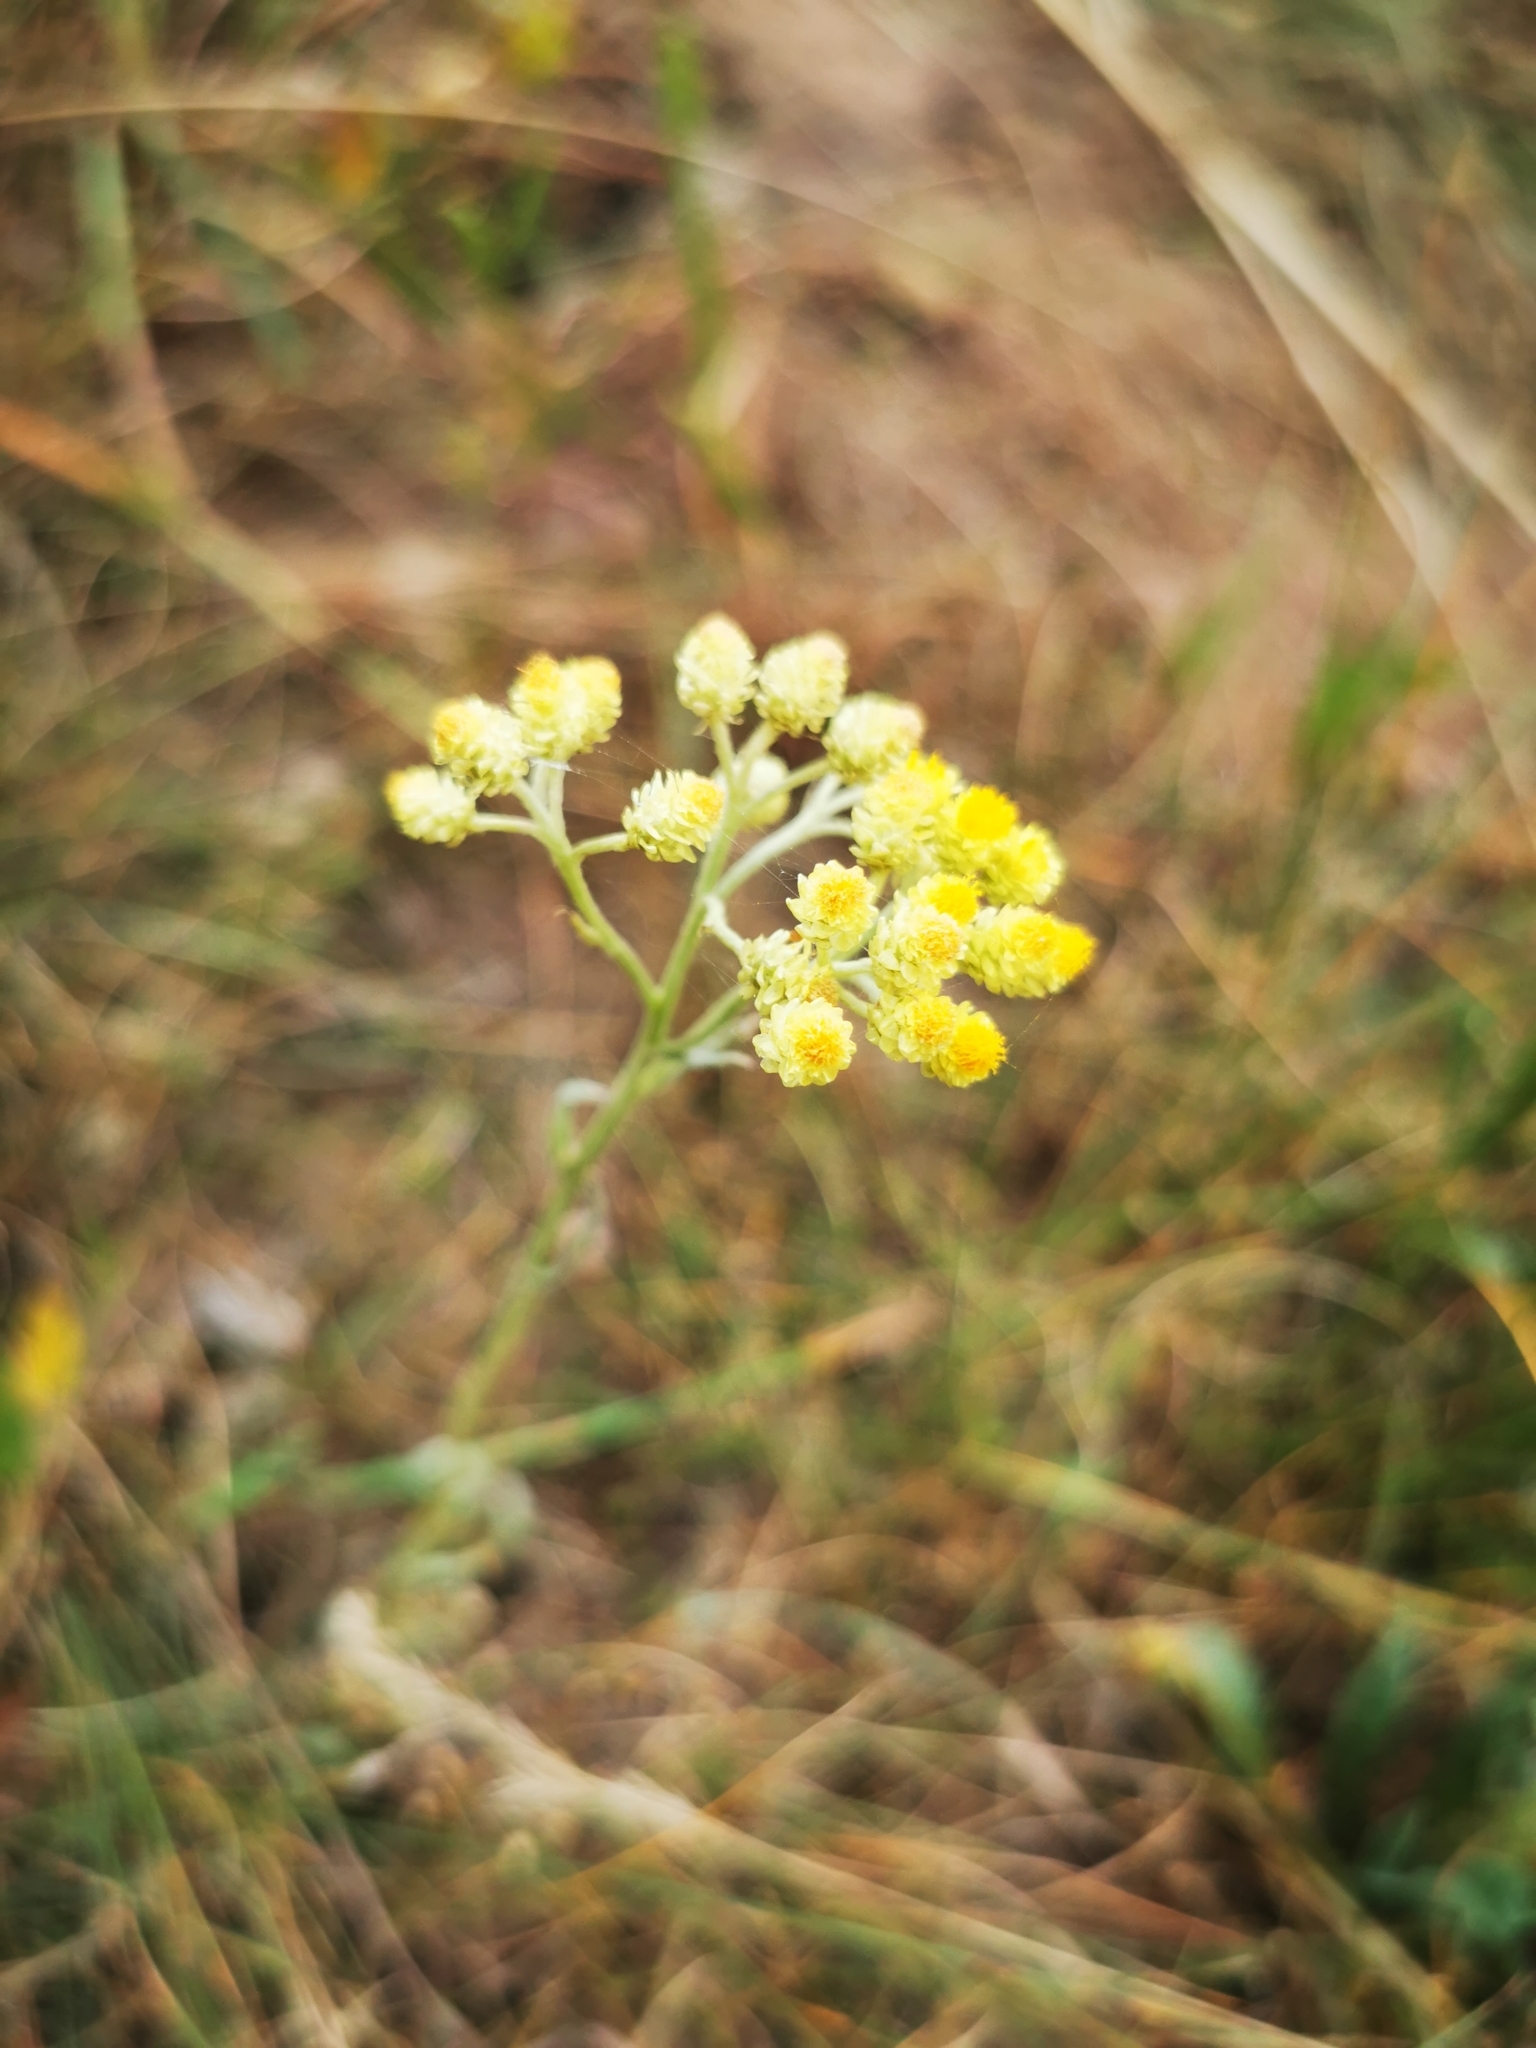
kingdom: Plantae
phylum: Tracheophyta
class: Magnoliopsida
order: Asterales
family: Asteraceae
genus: Helichrysum
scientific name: Helichrysum arenarium
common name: Strawflower
